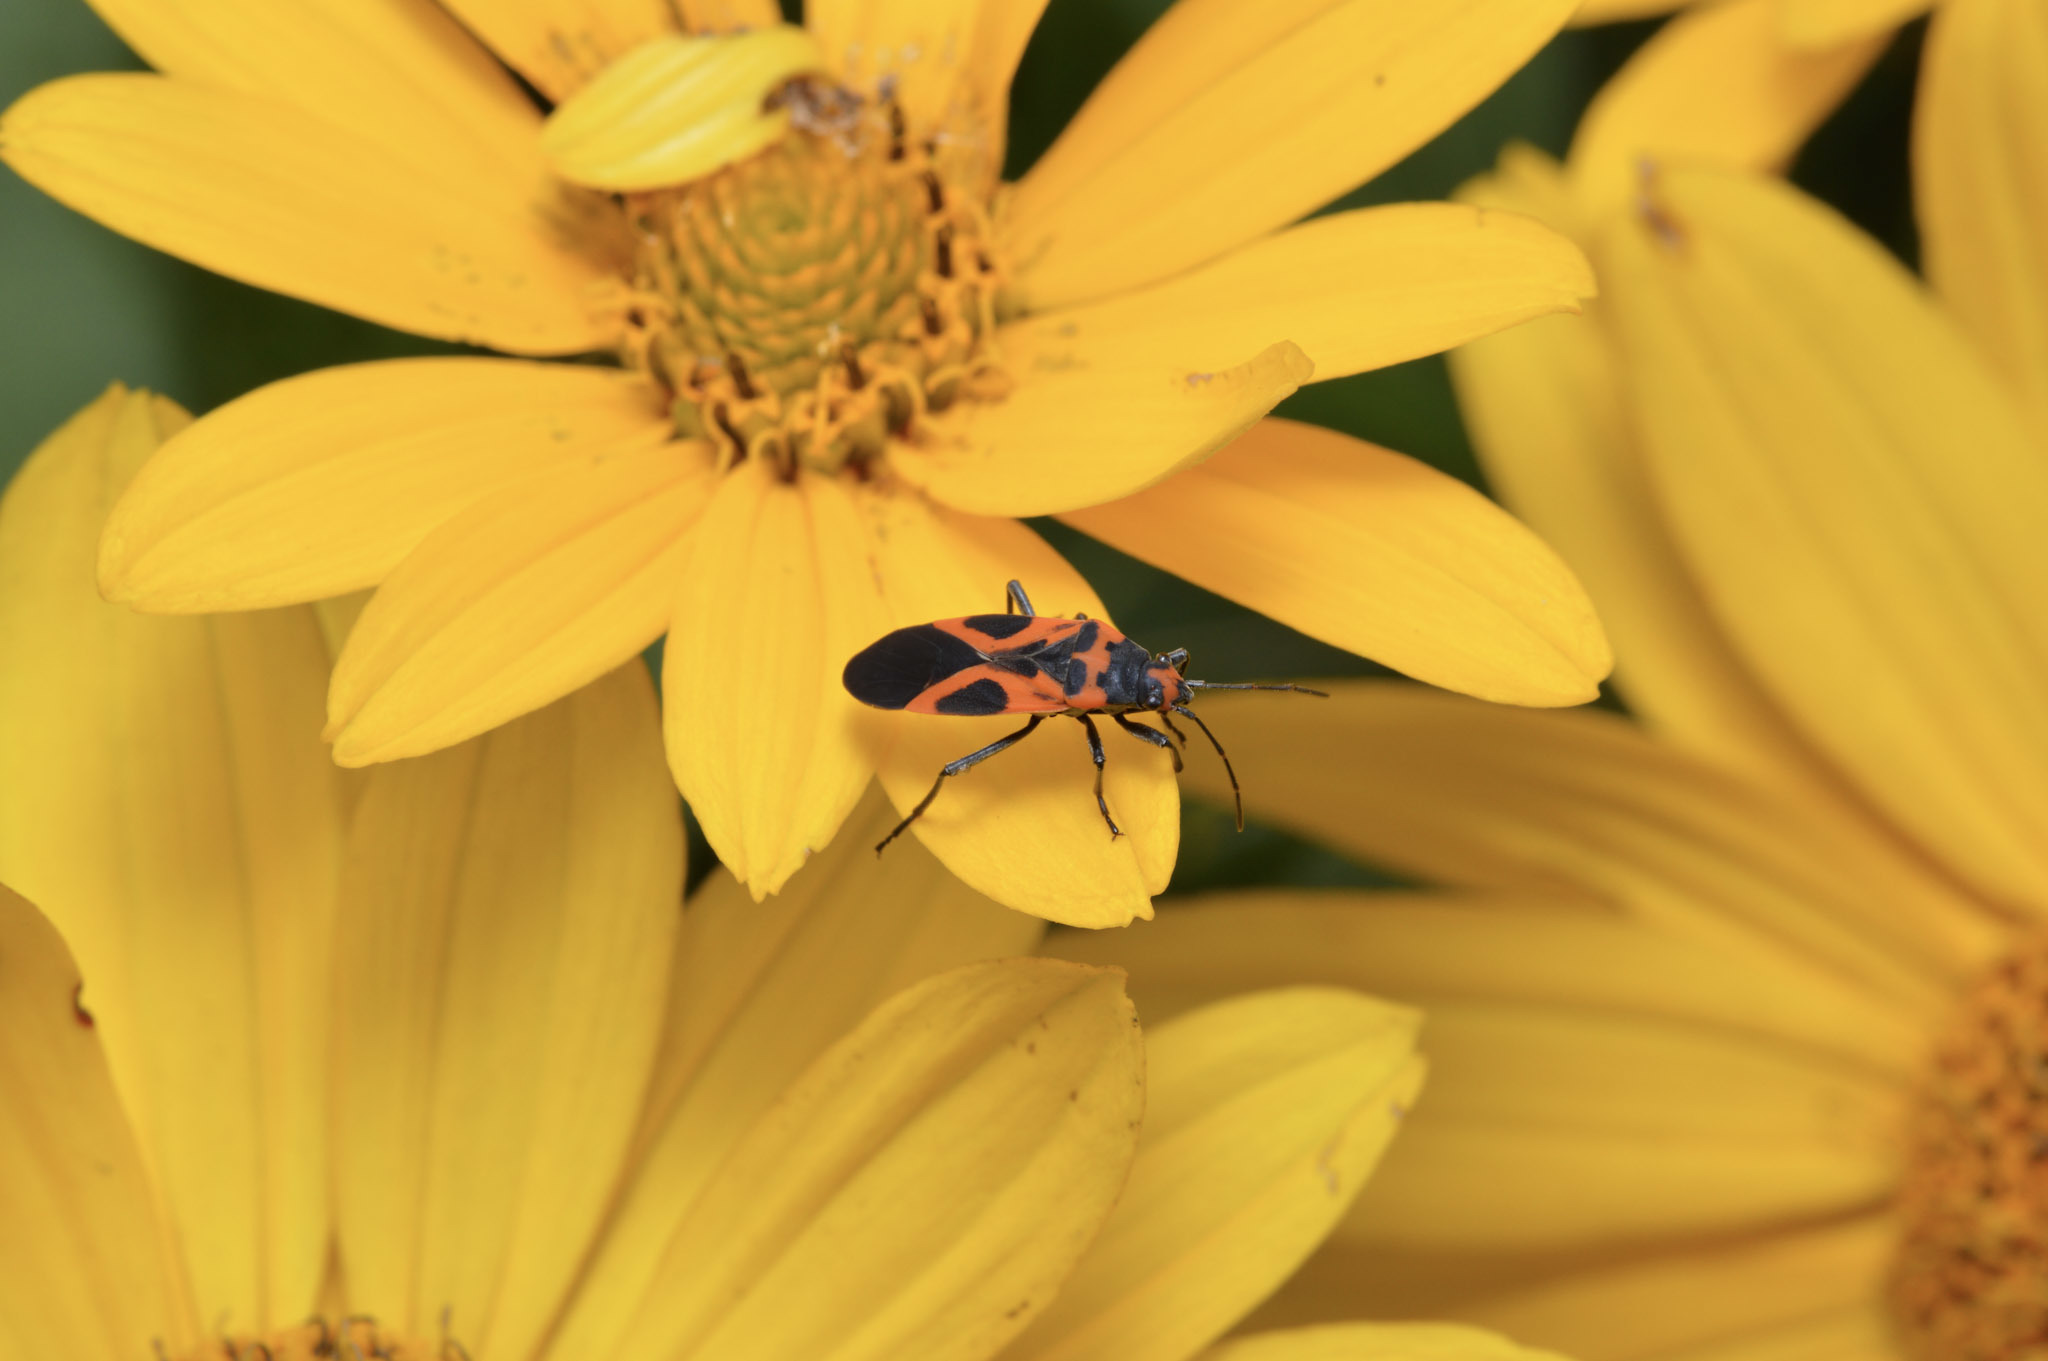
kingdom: Animalia
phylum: Arthropoda
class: Insecta
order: Hemiptera
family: Lygaeidae
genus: Lygaeus
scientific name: Lygaeus turcicus
